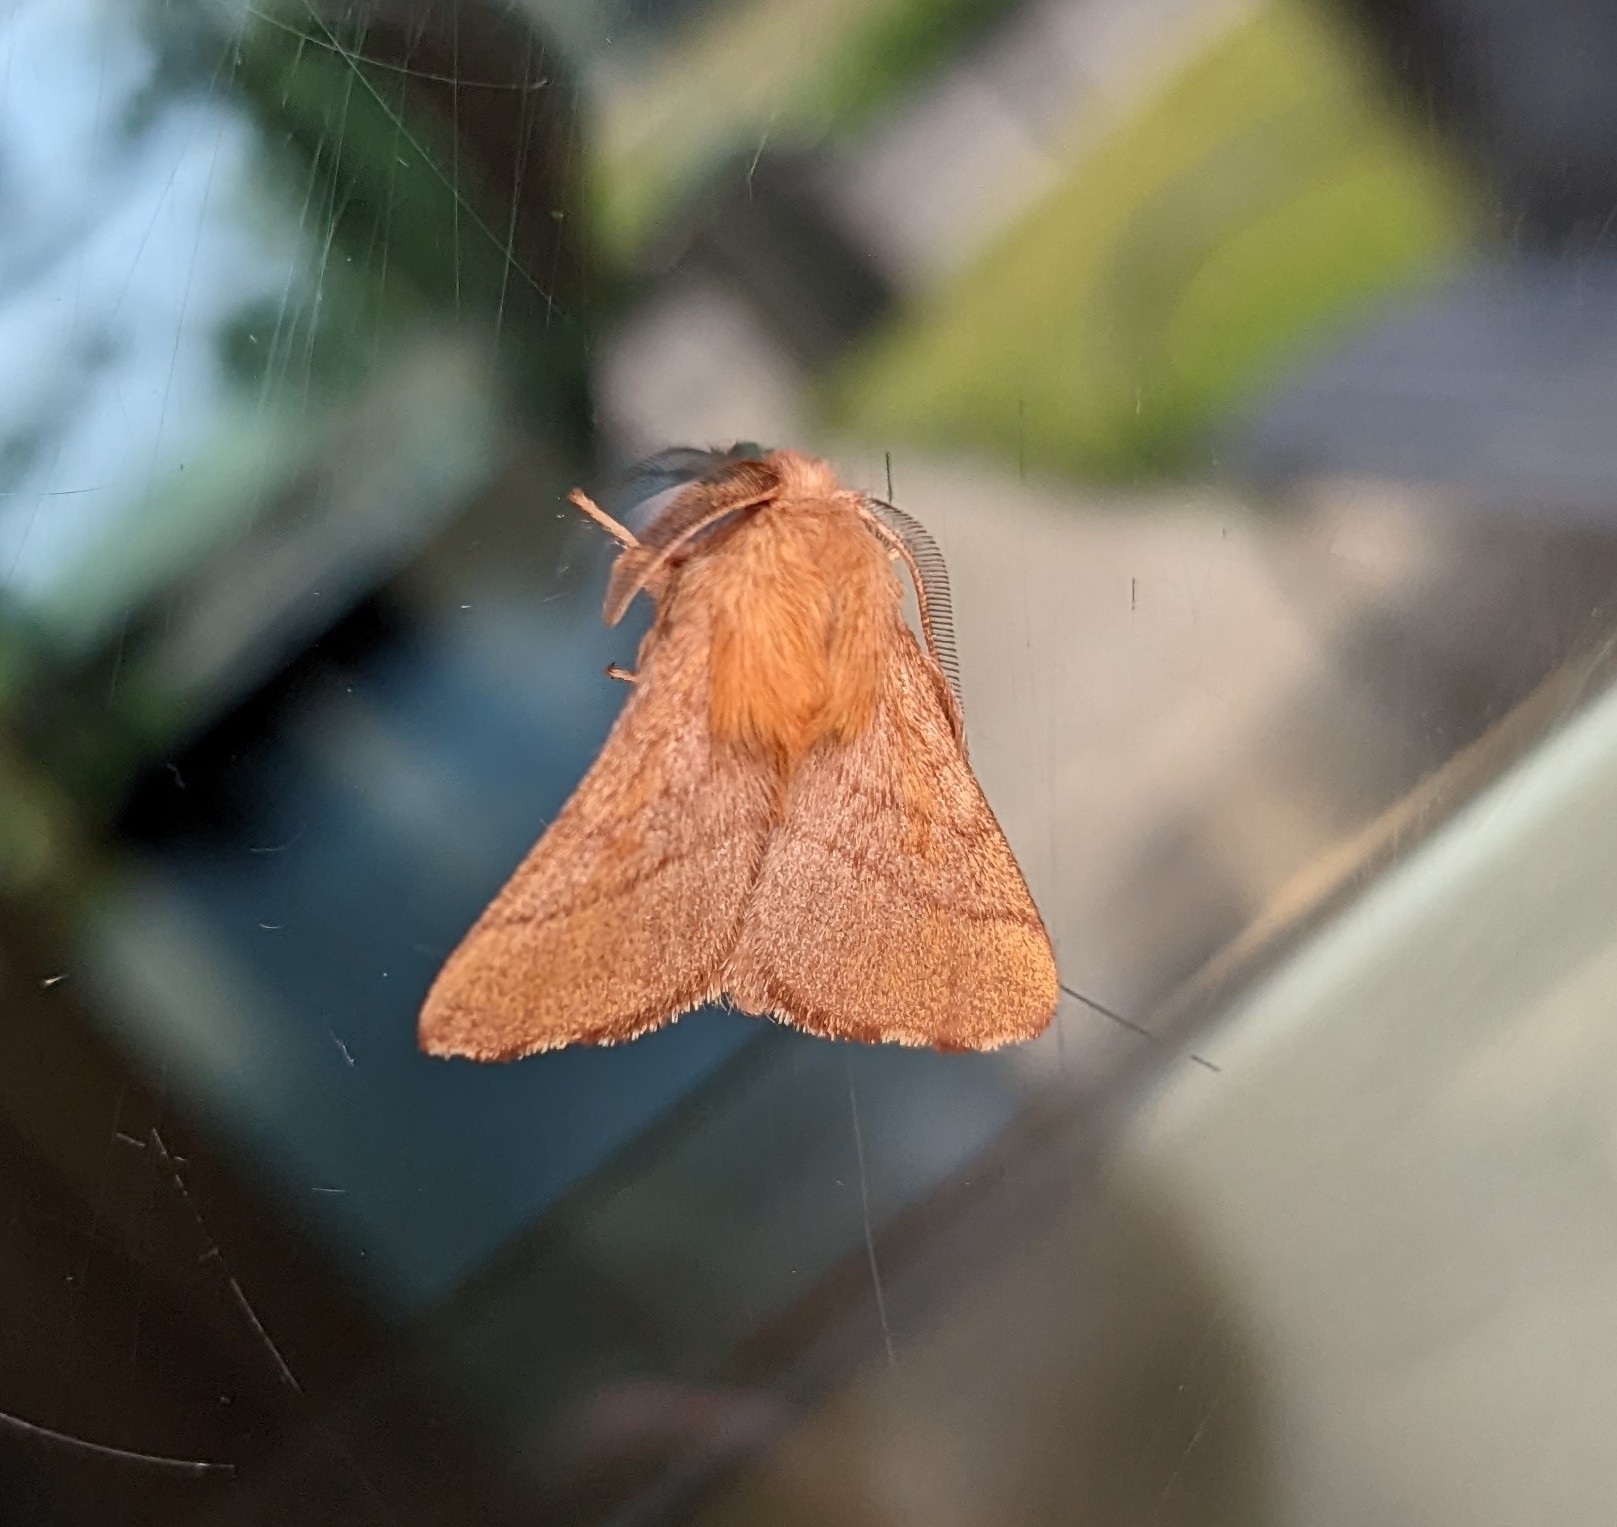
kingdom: Animalia
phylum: Arthropoda
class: Insecta
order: Lepidoptera
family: Lasiocampidae
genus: Malacosoma
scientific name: Malacosoma disstria
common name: Forest tent caterpillar
